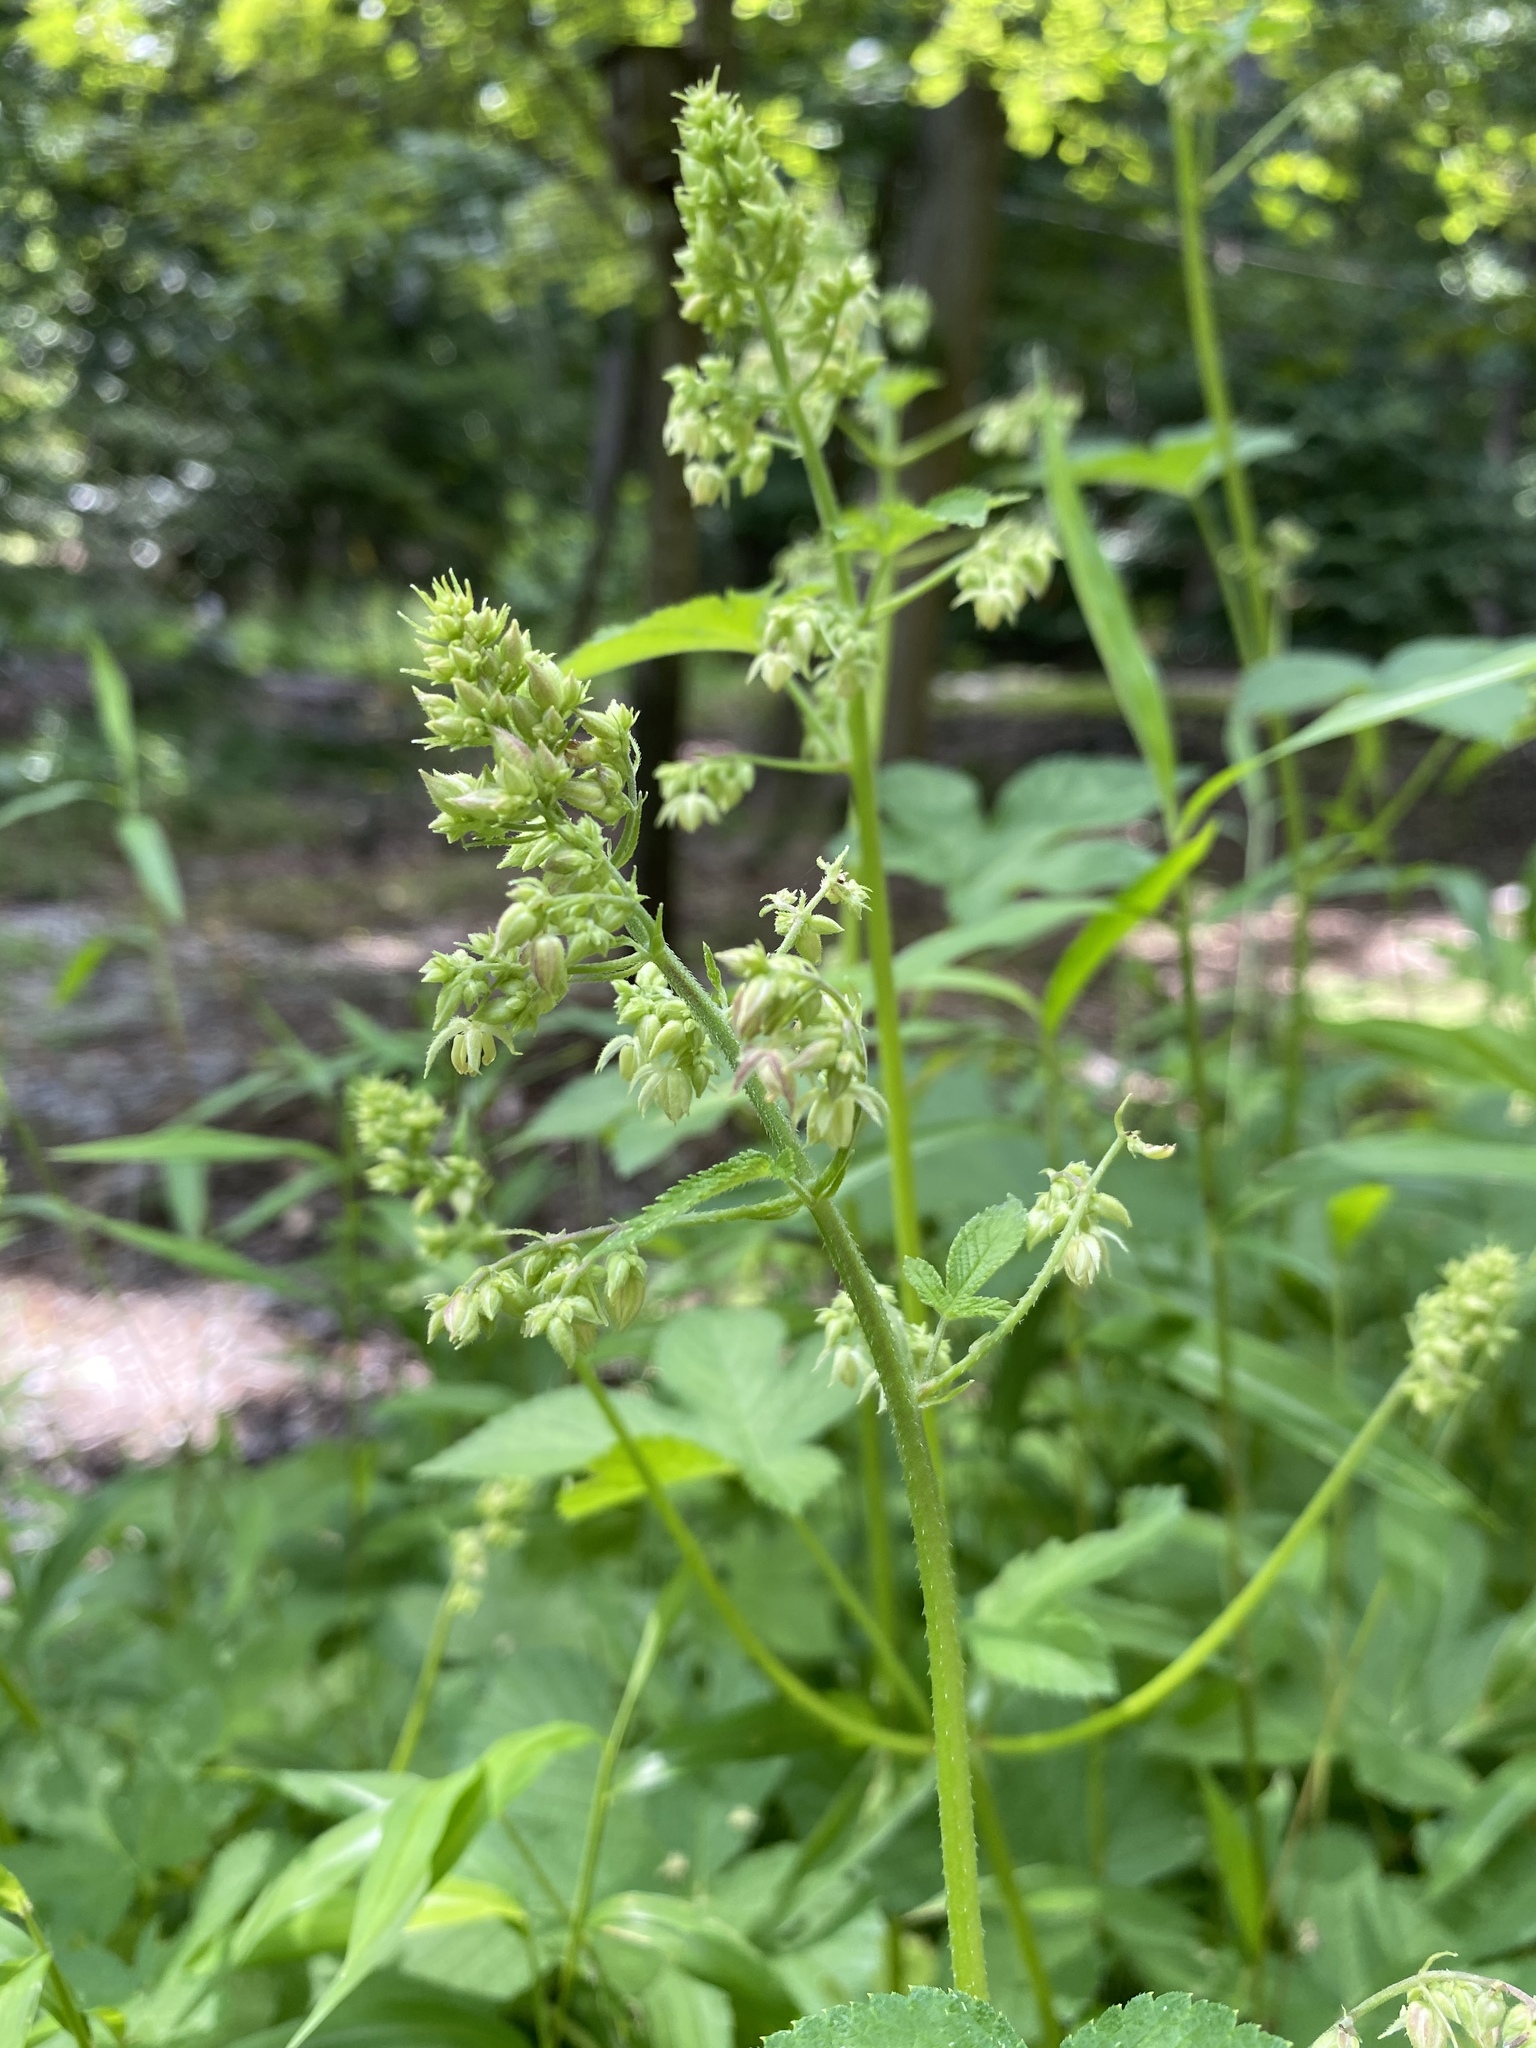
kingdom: Plantae
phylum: Tracheophyta
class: Magnoliopsida
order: Rosales
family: Cannabaceae
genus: Humulus
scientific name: Humulus scandens
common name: Japanese hop
